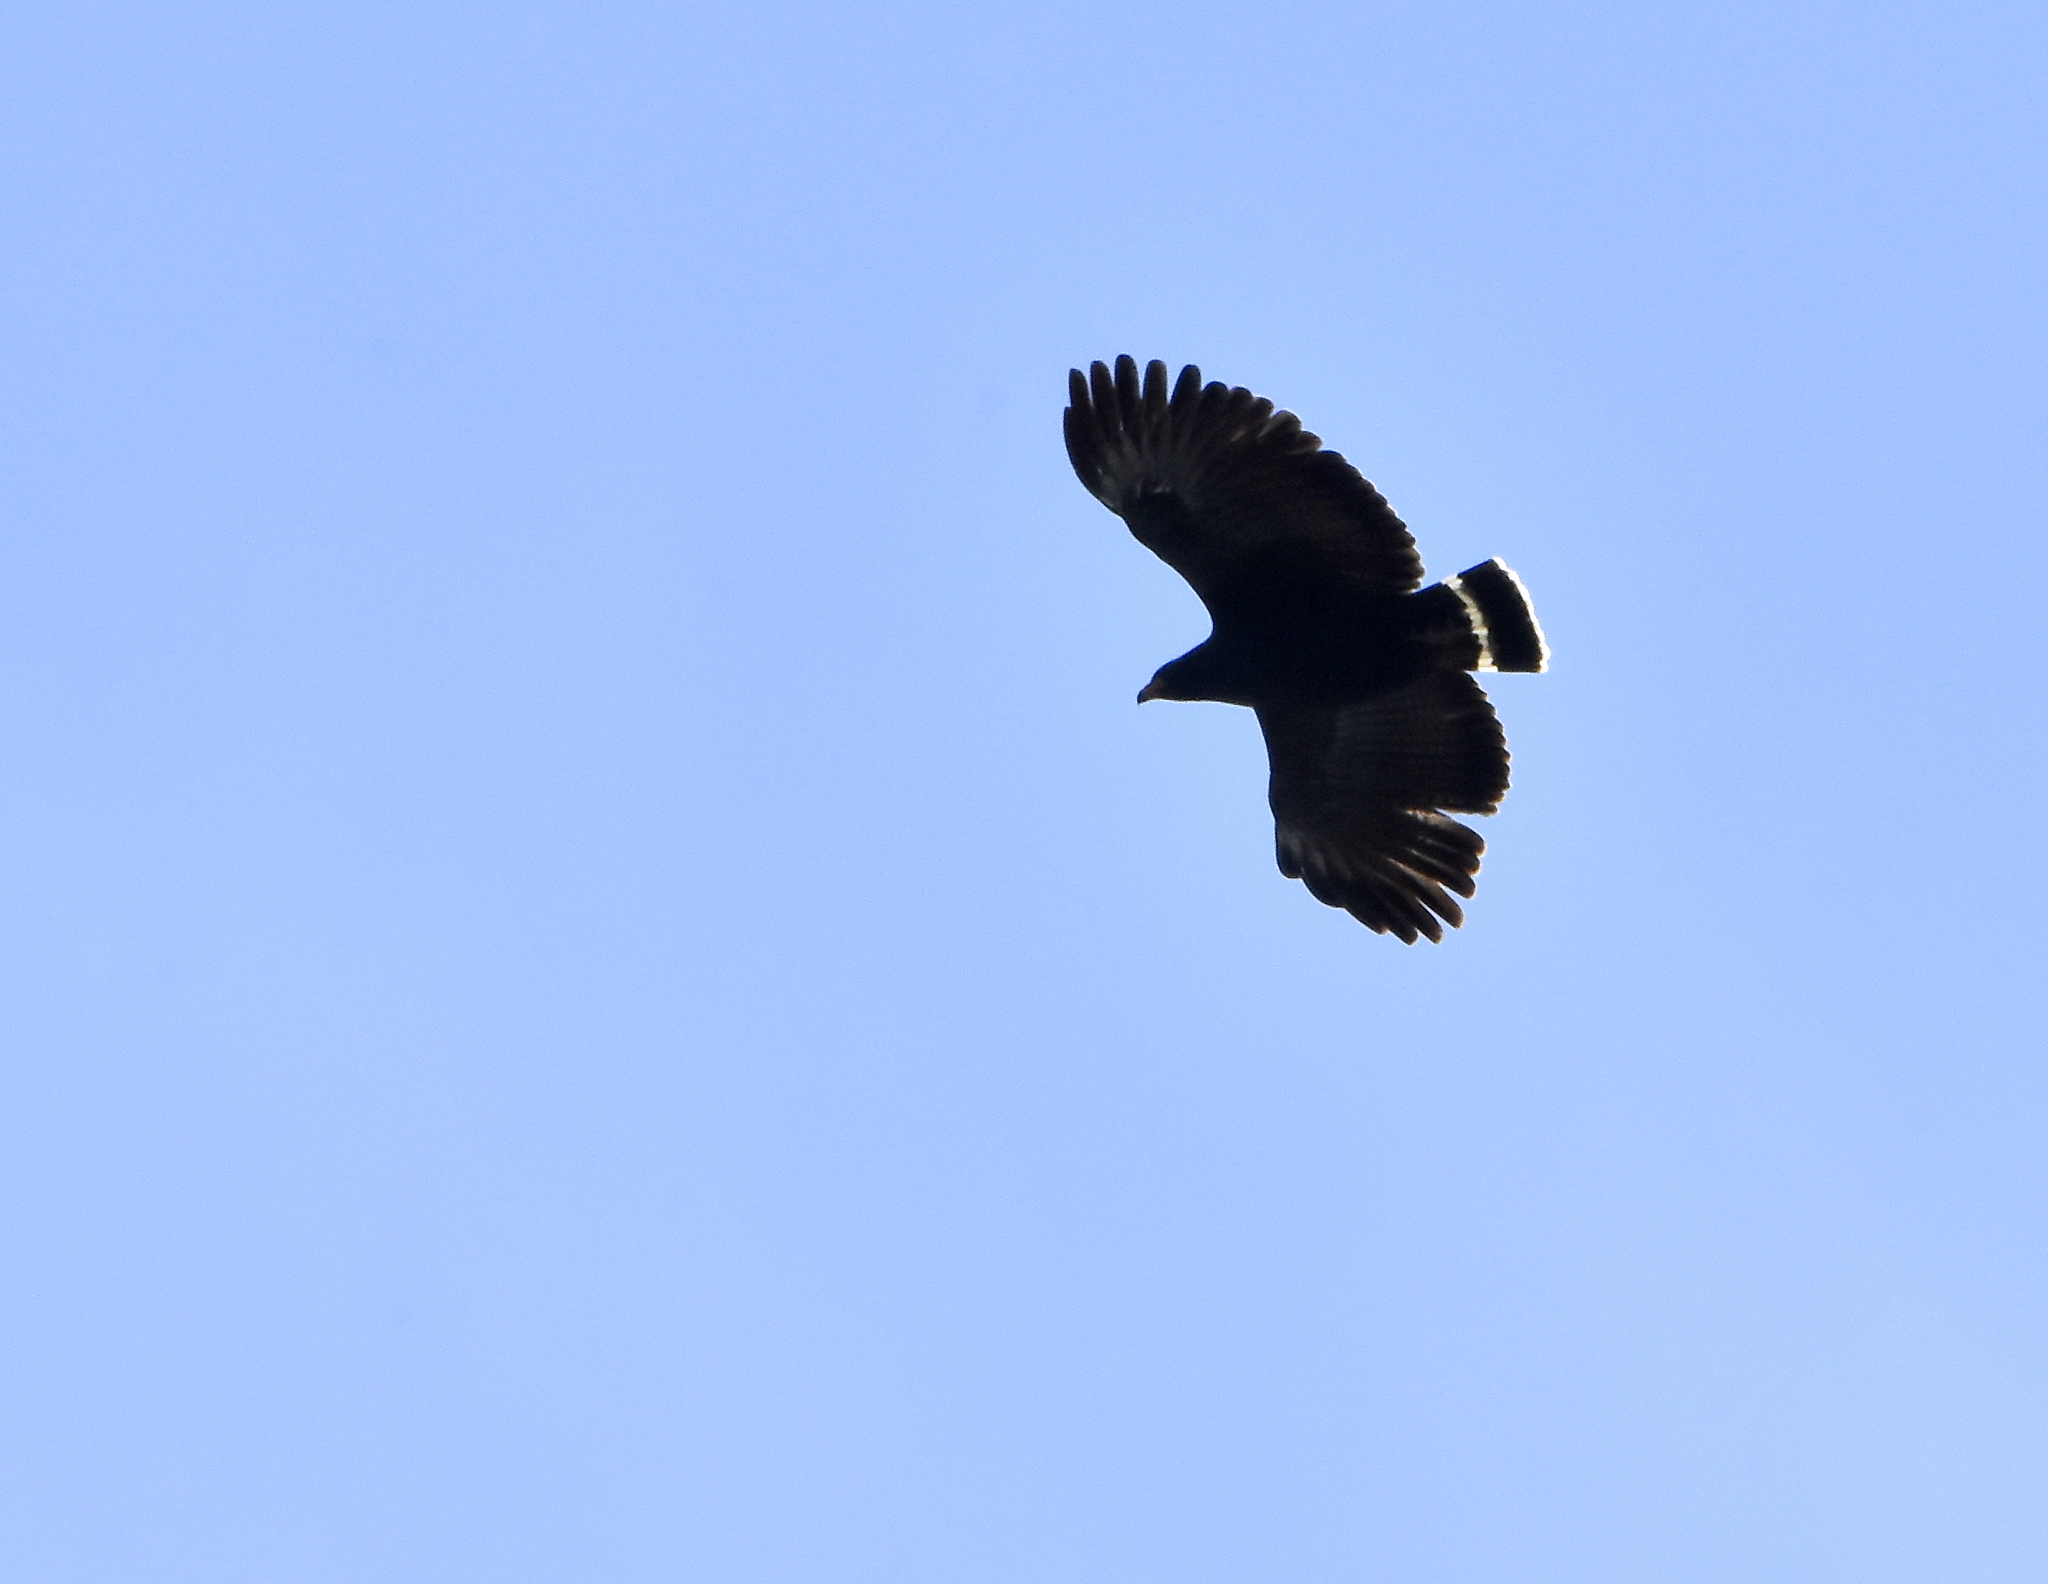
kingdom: Animalia
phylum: Chordata
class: Aves
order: Accipitriformes
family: Accipitridae
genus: Buteogallus
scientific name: Buteogallus anthracinus
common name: Common black hawk
